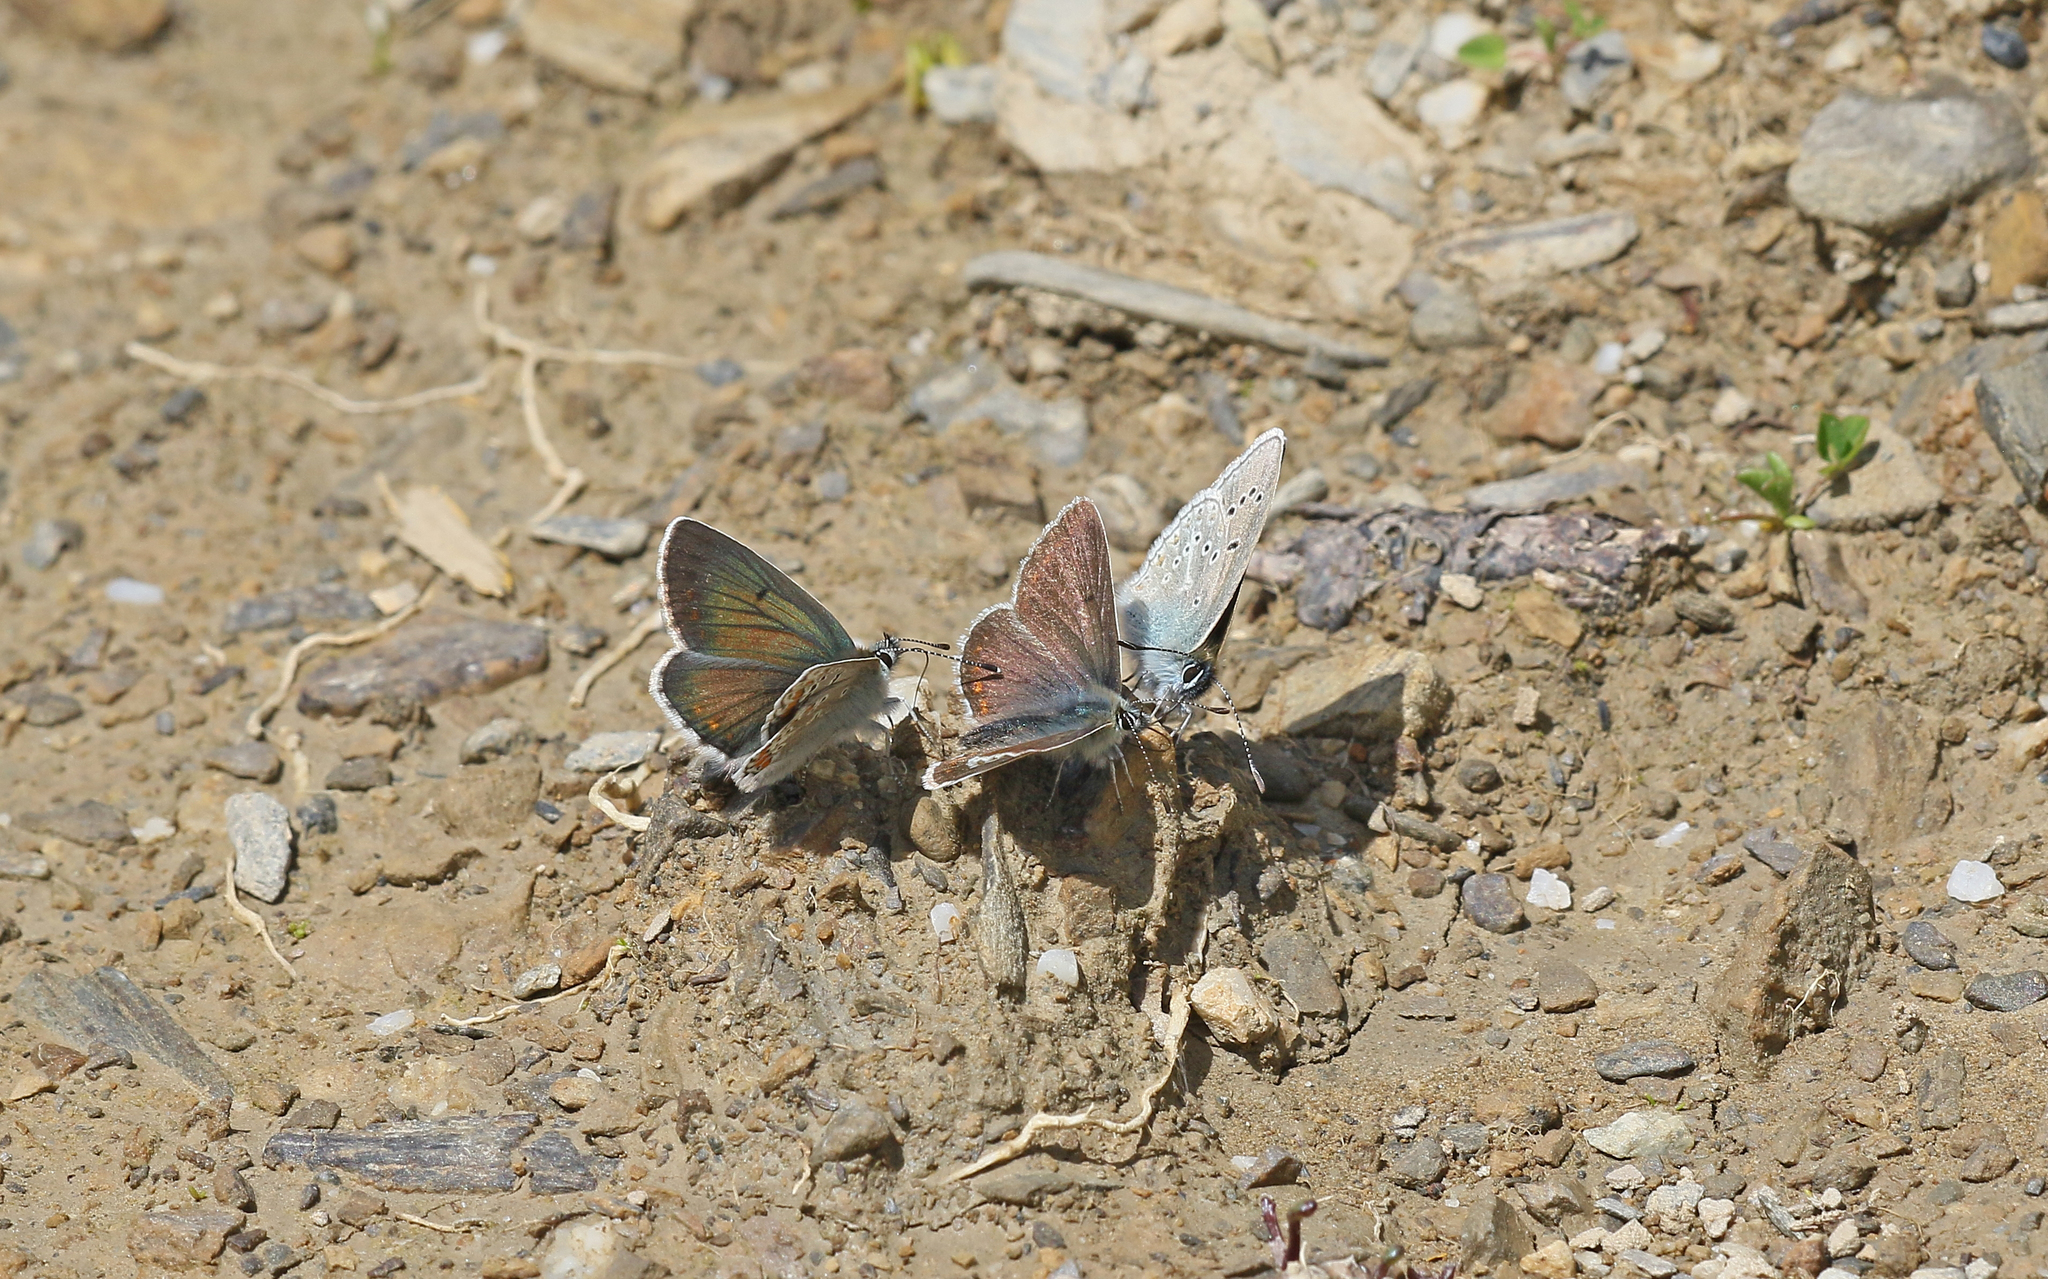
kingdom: Animalia
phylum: Arthropoda
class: Insecta
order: Lepidoptera
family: Lycaenidae
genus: Aricia
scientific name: Aricia artaxerxes
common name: Northern brown argus
